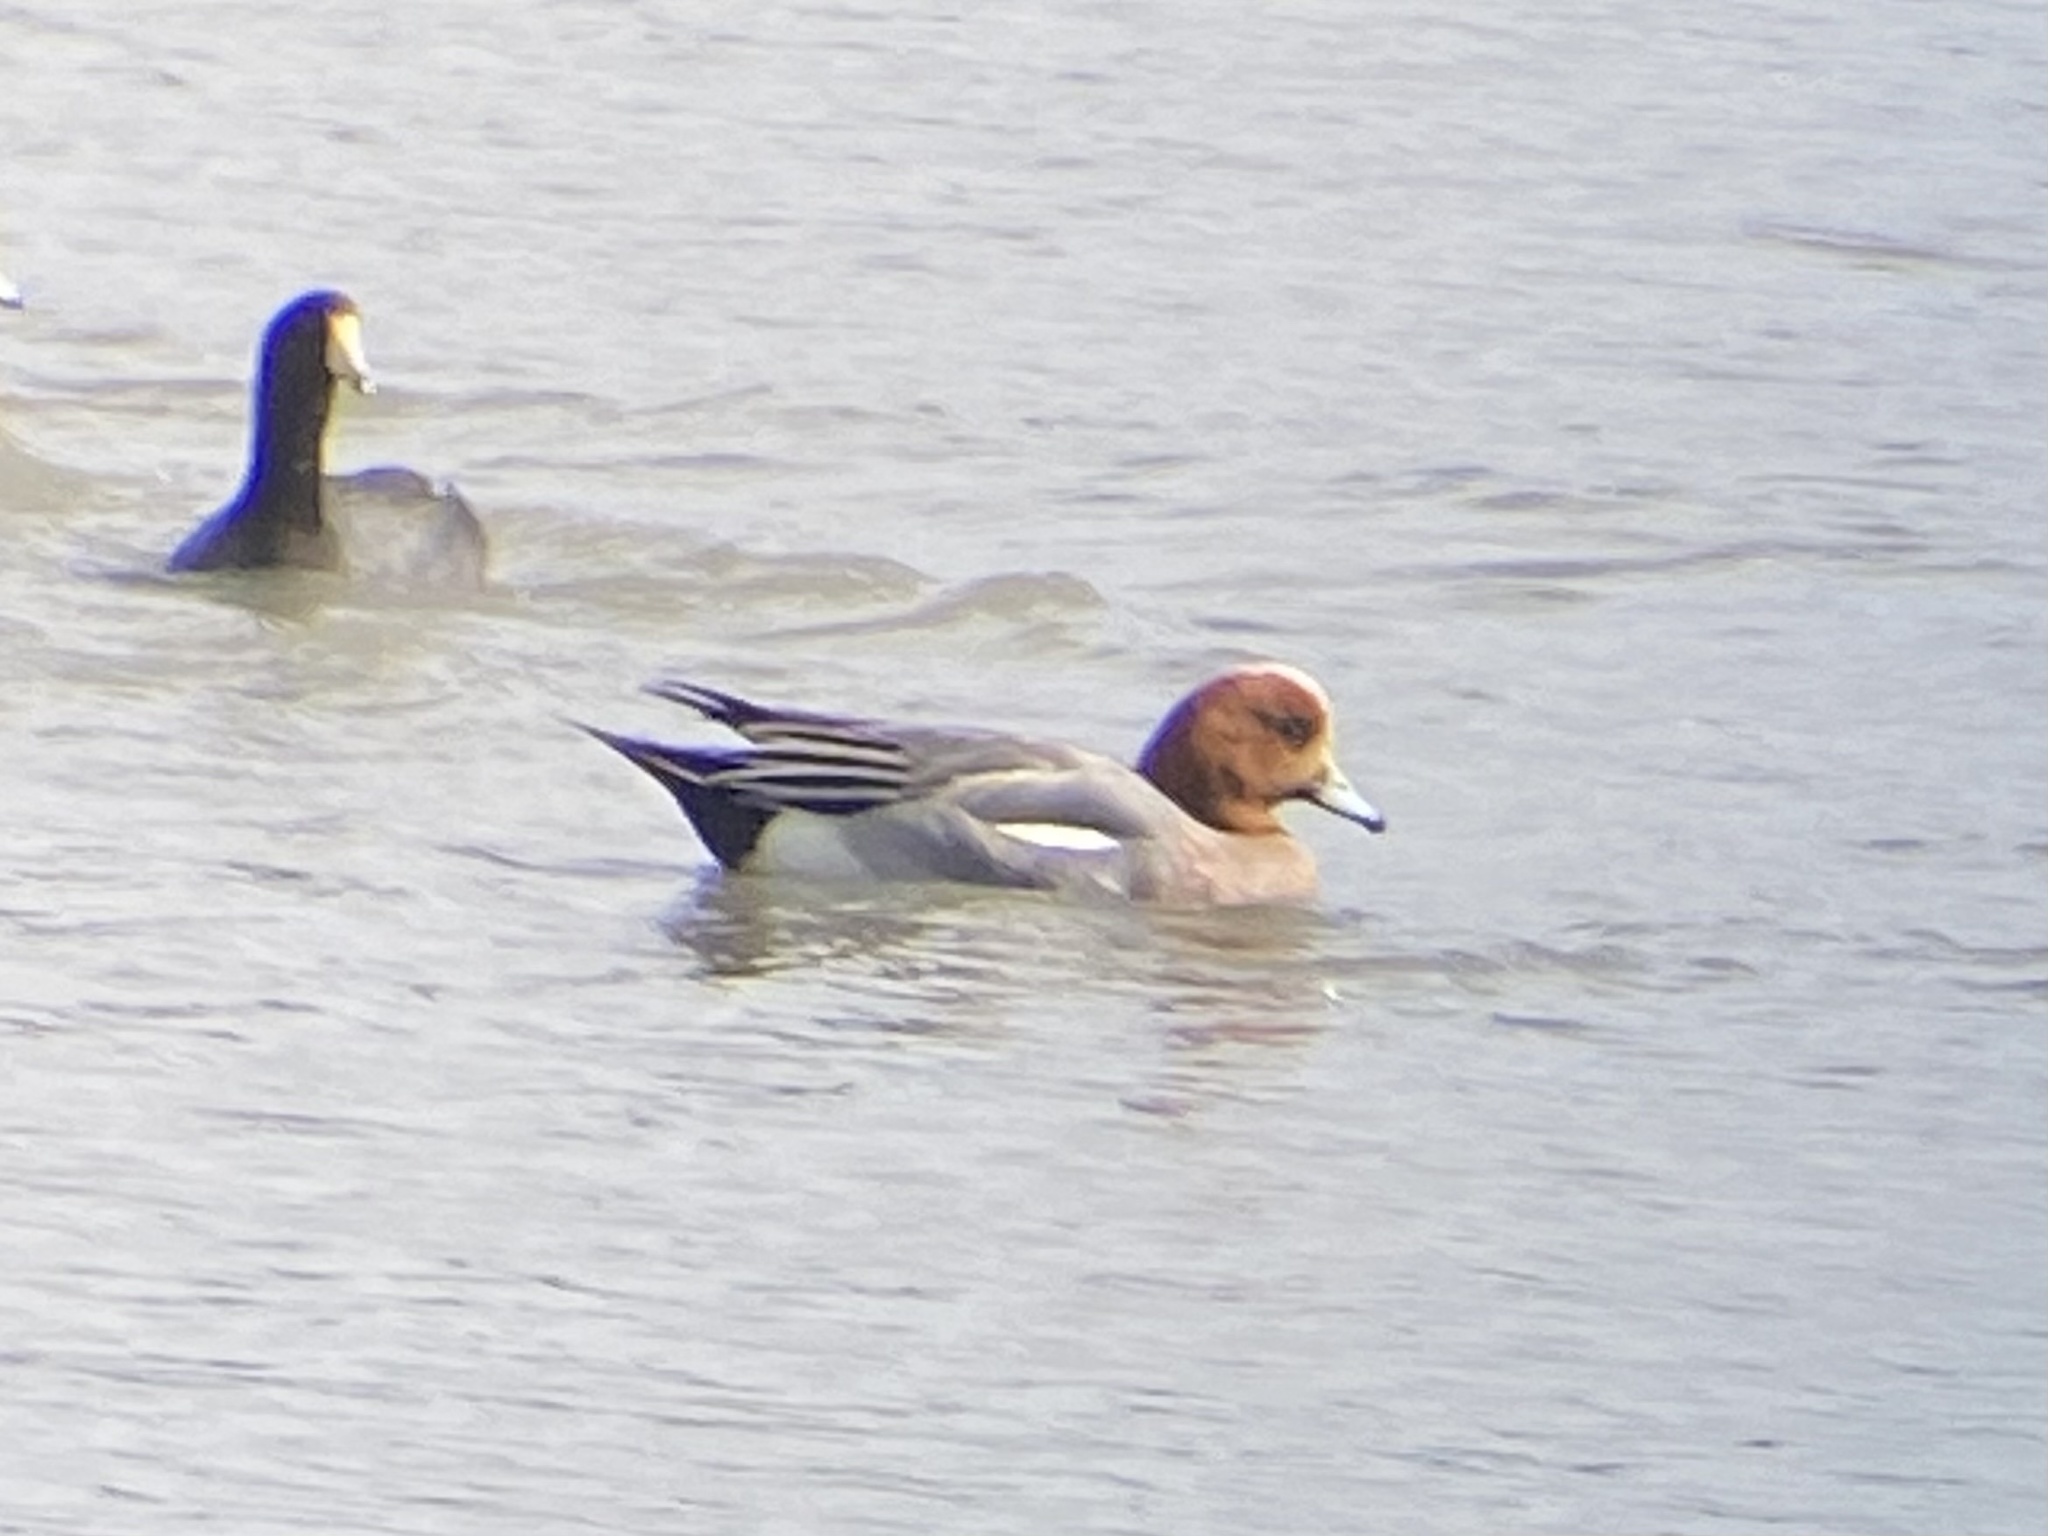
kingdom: Animalia
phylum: Chordata
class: Aves
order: Anseriformes
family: Anatidae
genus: Mareca
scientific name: Mareca penelope
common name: Eurasian wigeon
